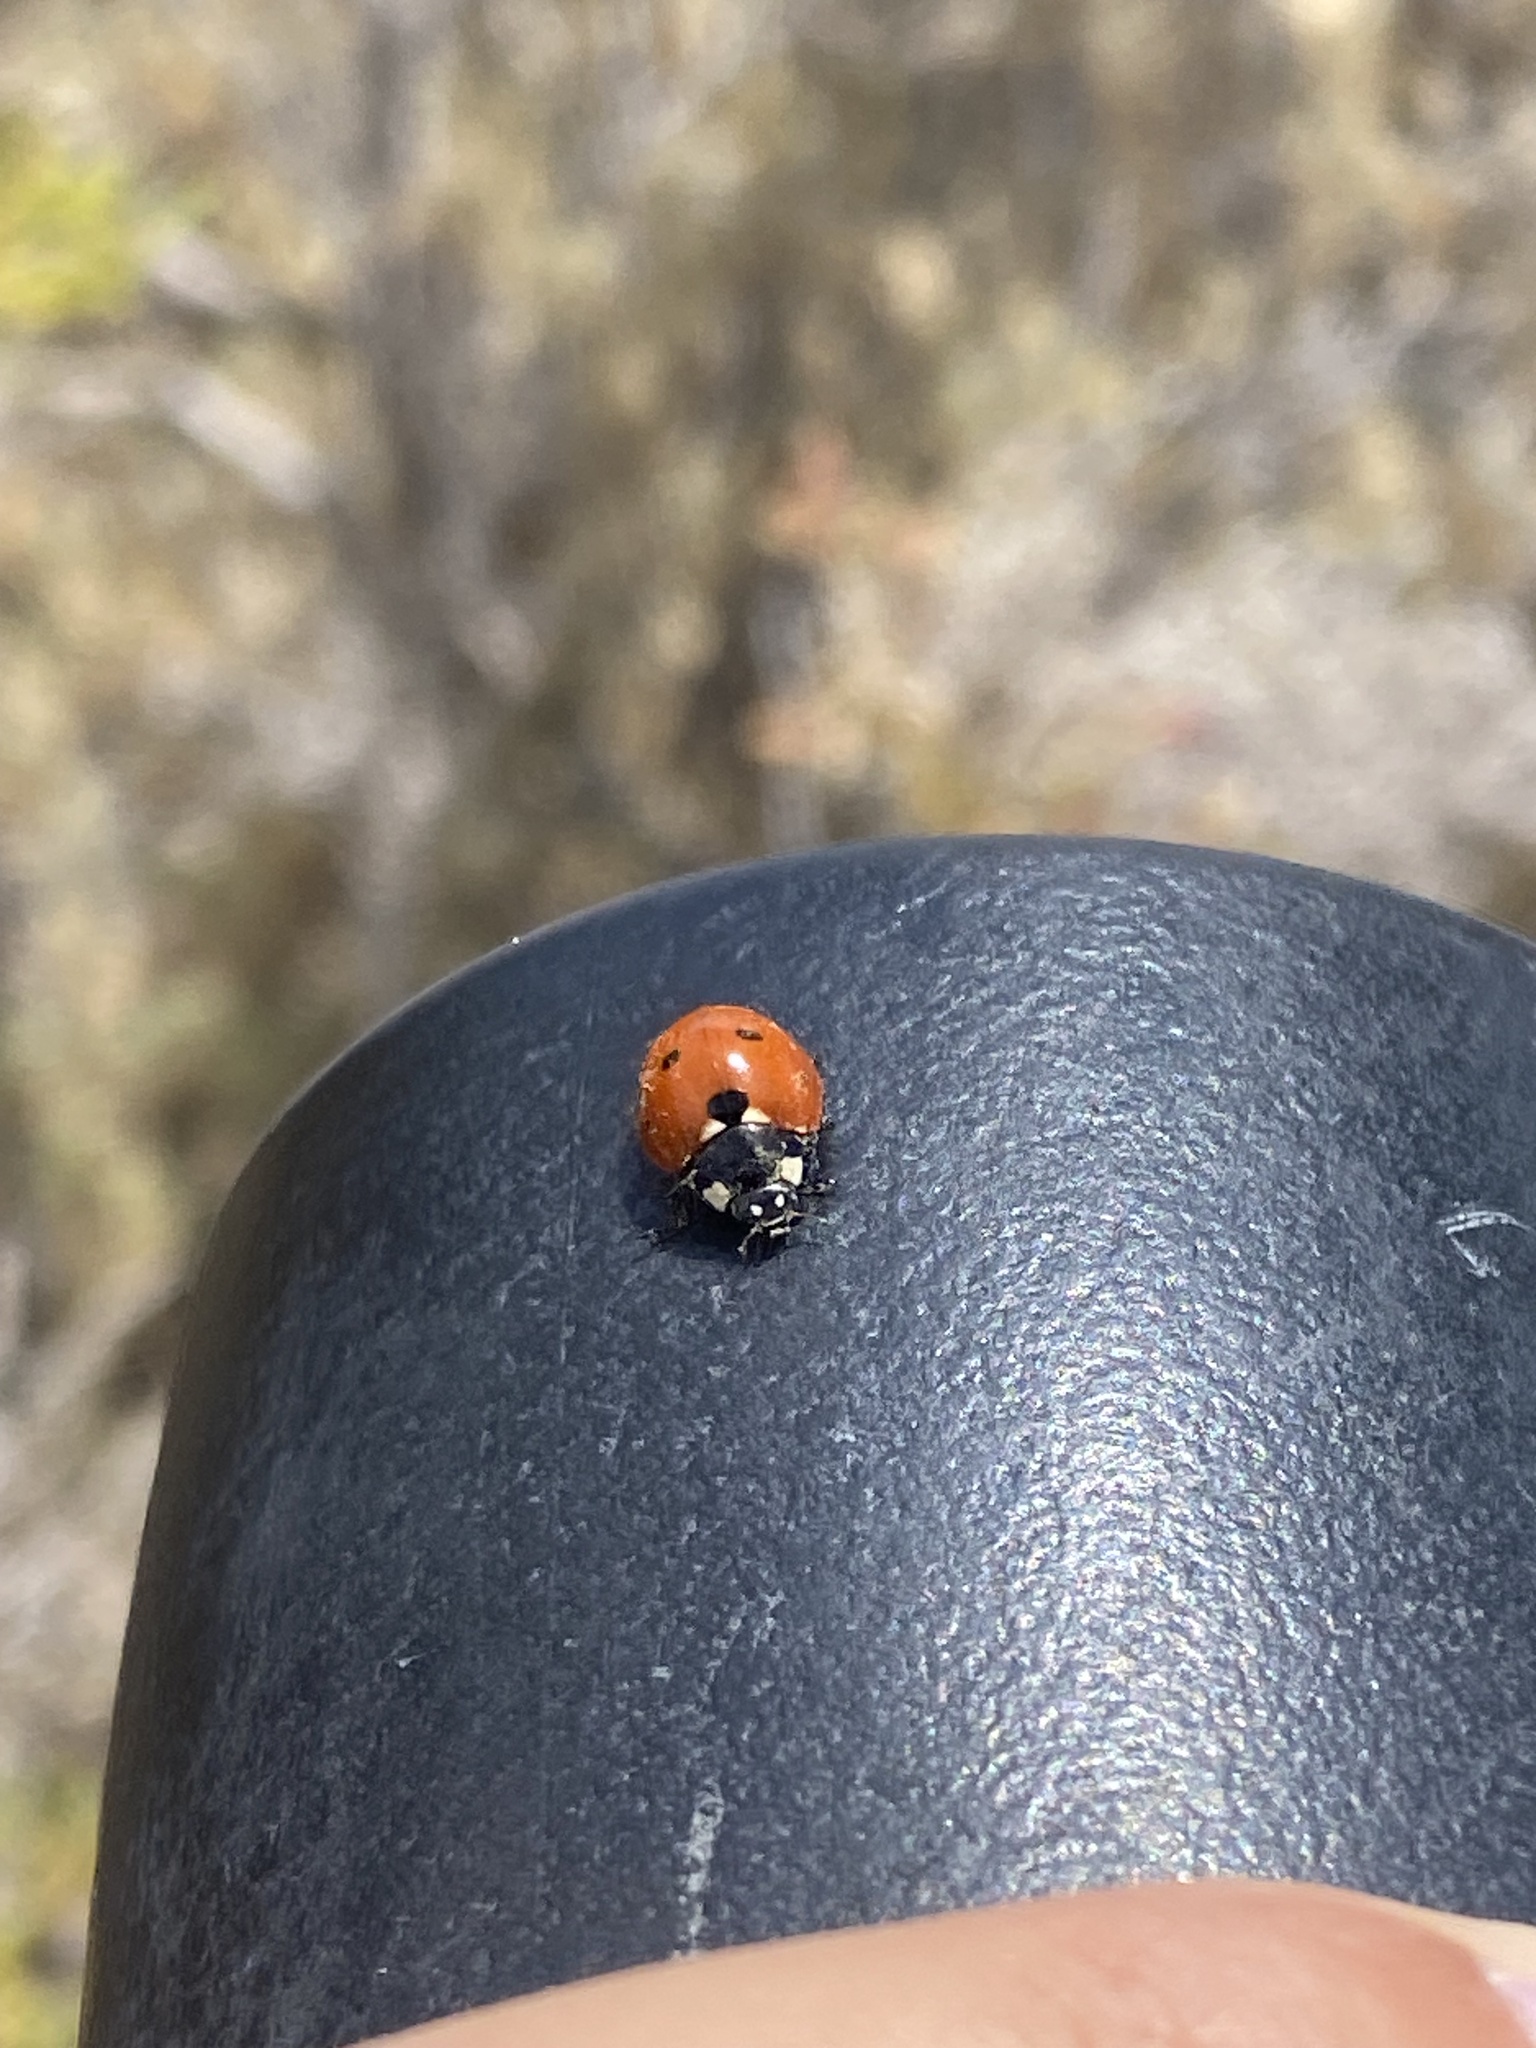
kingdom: Animalia
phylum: Arthropoda
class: Insecta
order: Coleoptera
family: Coccinellidae
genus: Coccinella
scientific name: Coccinella septempunctata
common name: Sevenspotted lady beetle
